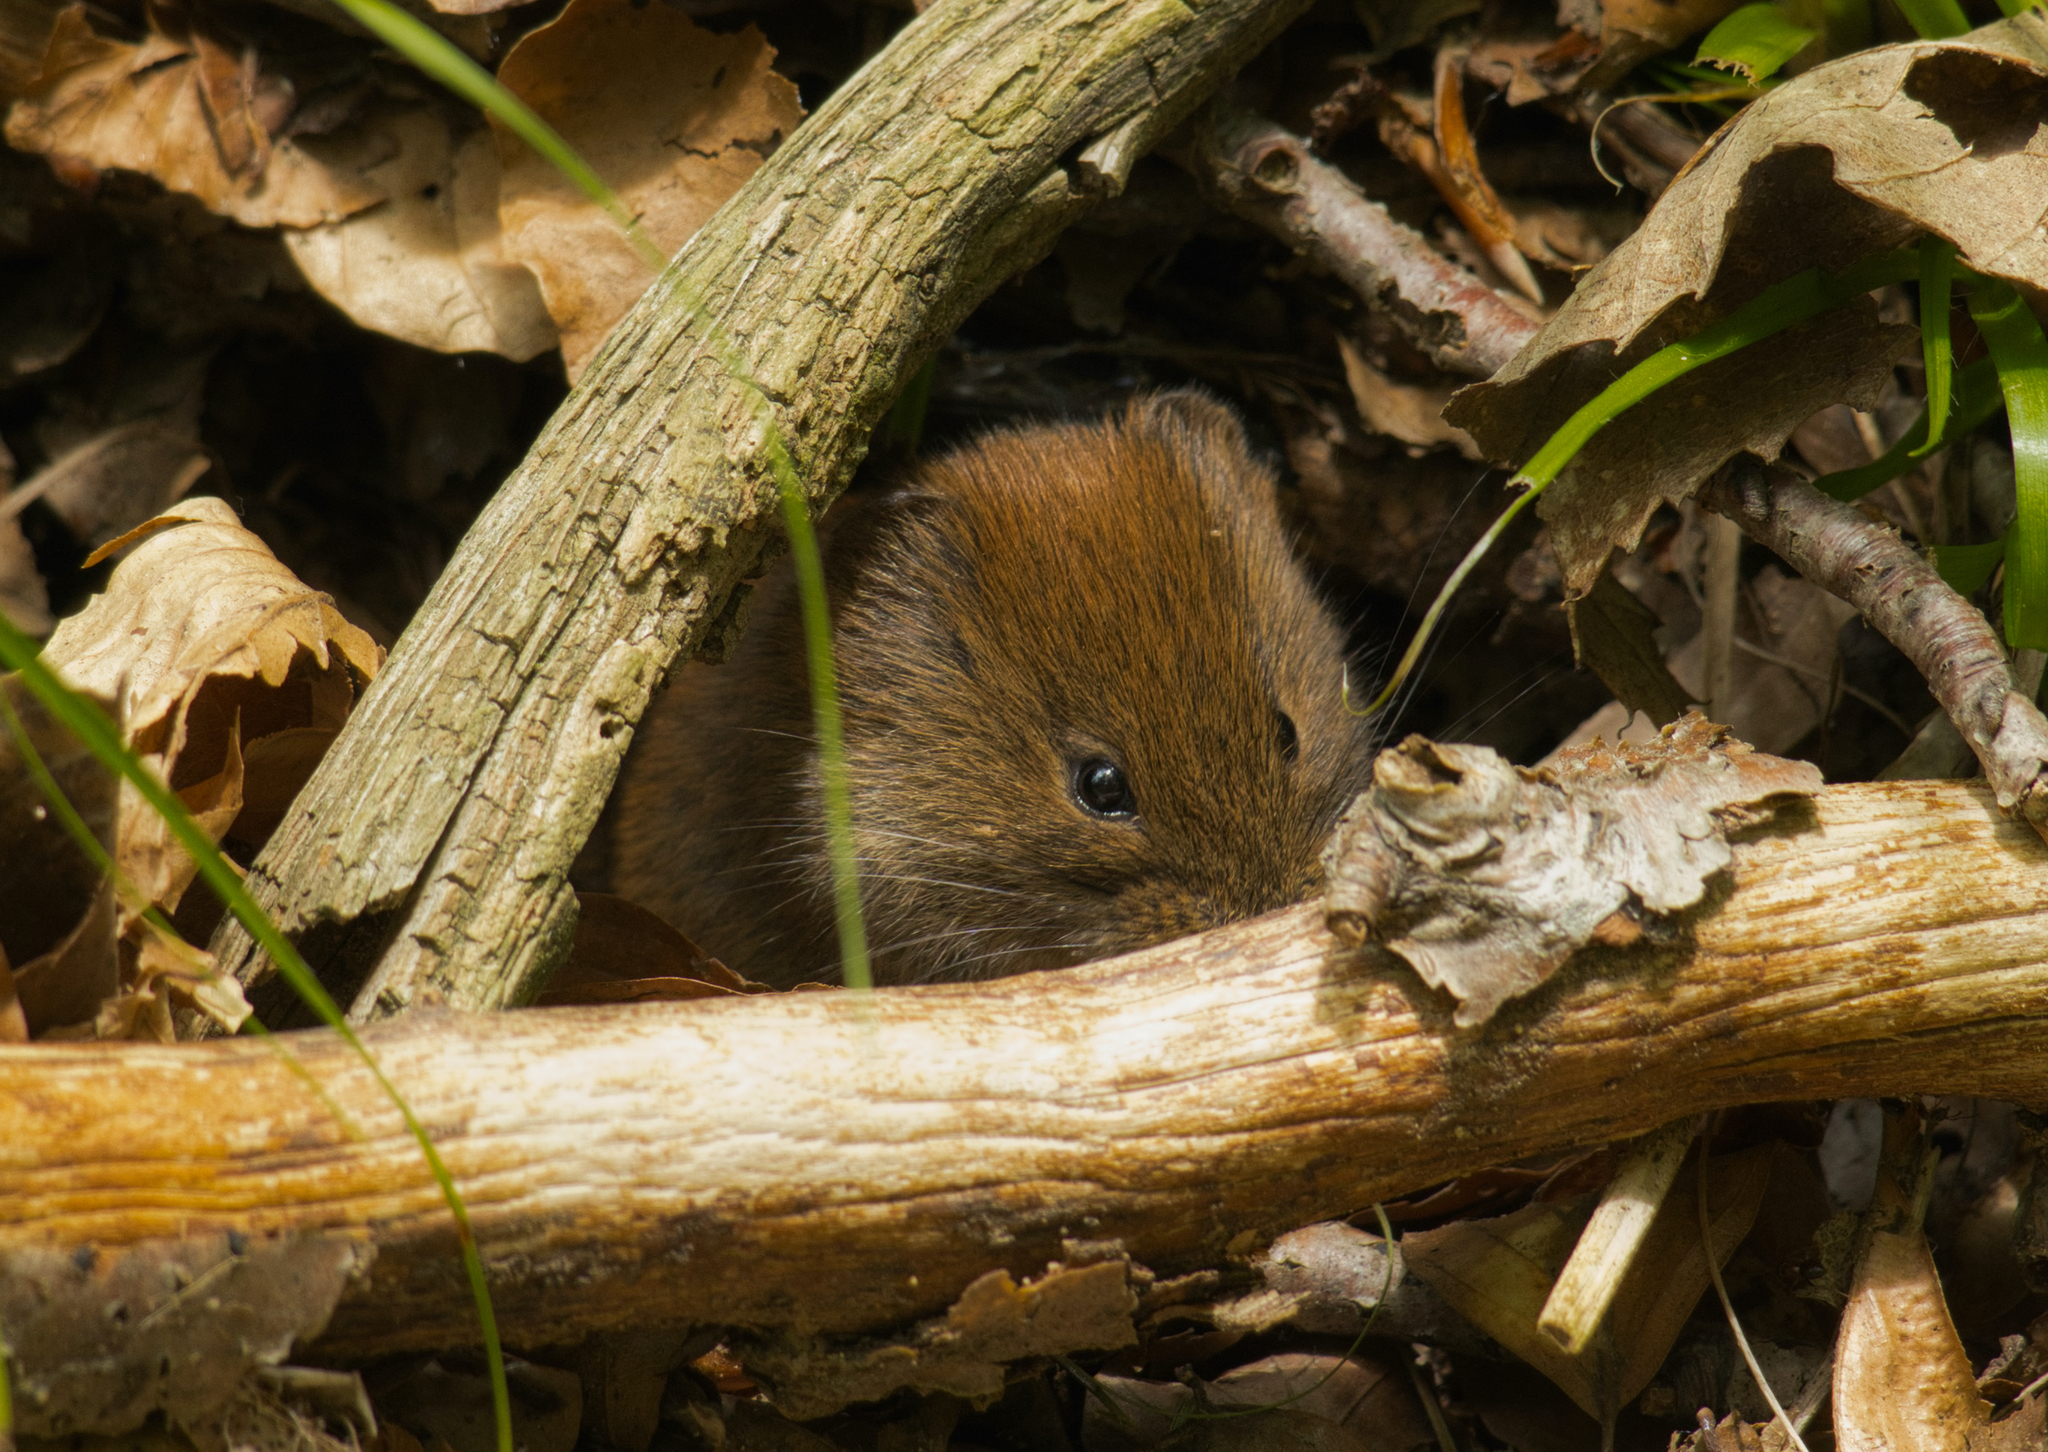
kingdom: Animalia
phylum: Chordata
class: Mammalia
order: Rodentia
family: Cricetidae
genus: Myodes
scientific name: Myodes glareolus
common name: Bank vole
